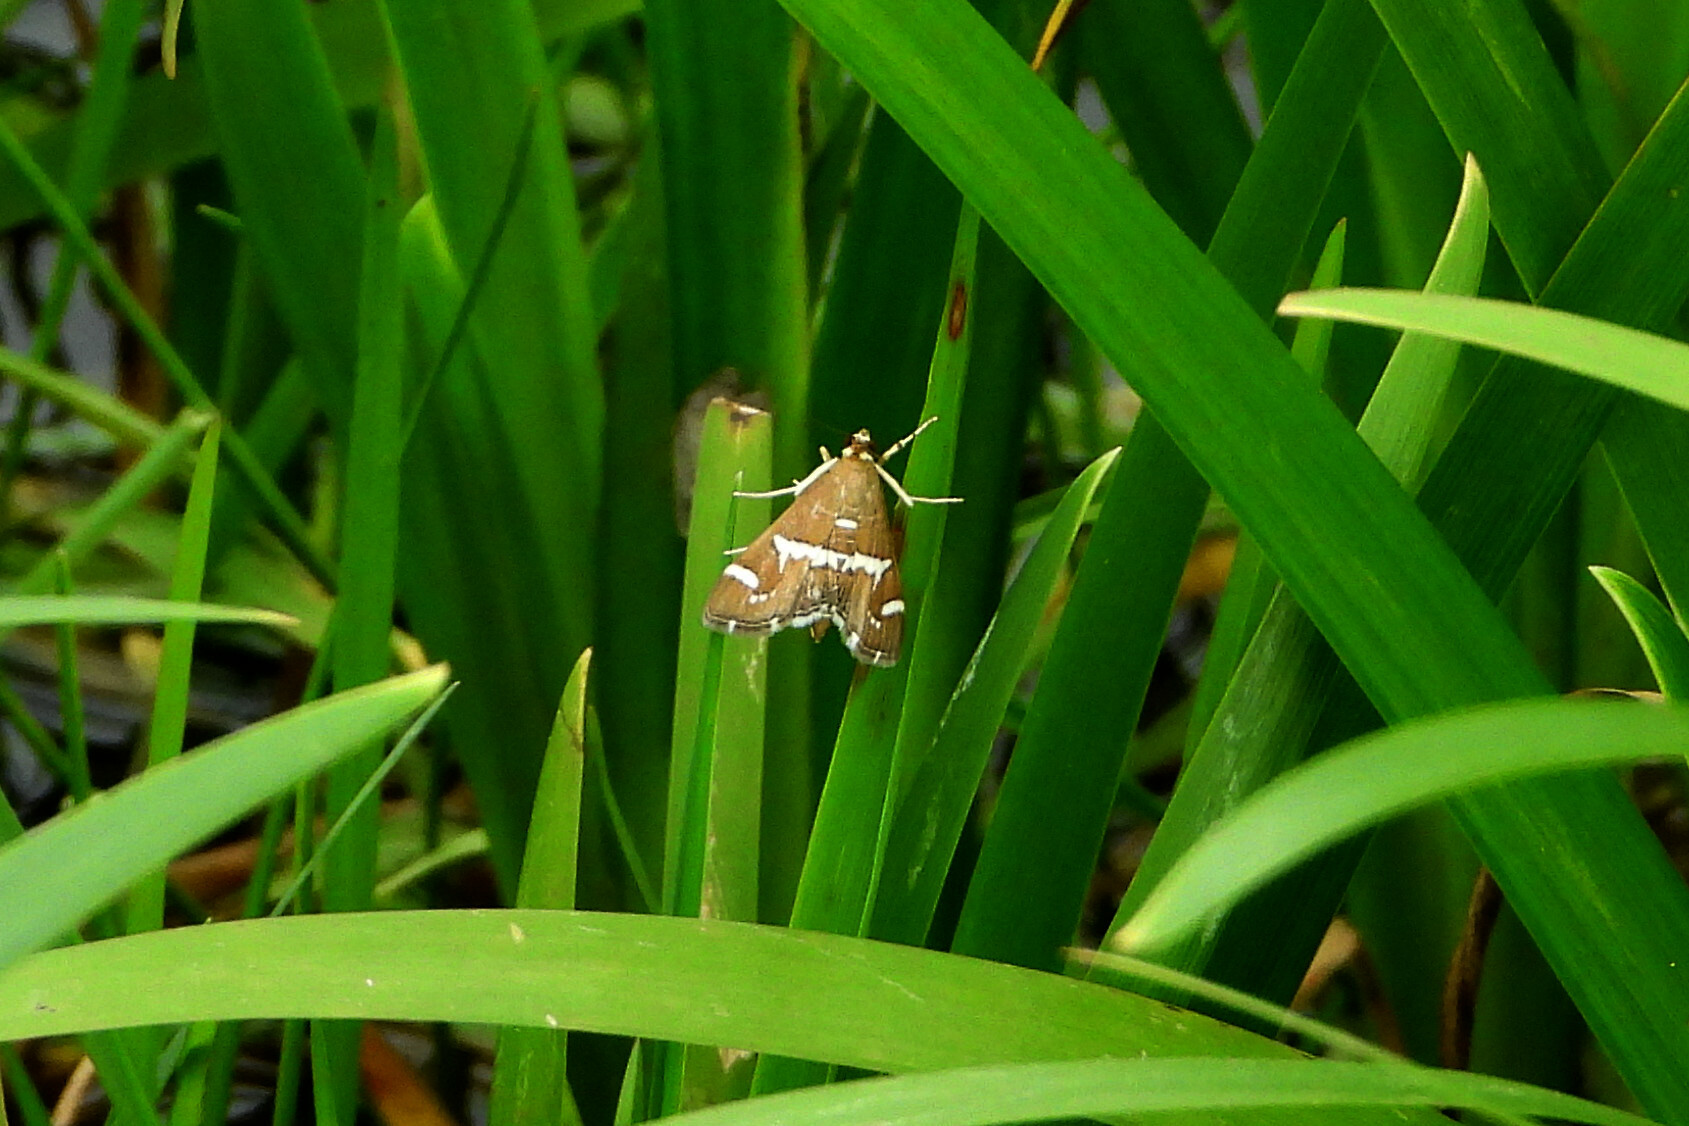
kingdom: Animalia
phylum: Arthropoda
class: Insecta
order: Lepidoptera
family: Crambidae
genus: Spoladea
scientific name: Spoladea recurvalis
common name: Beet webworm moth
